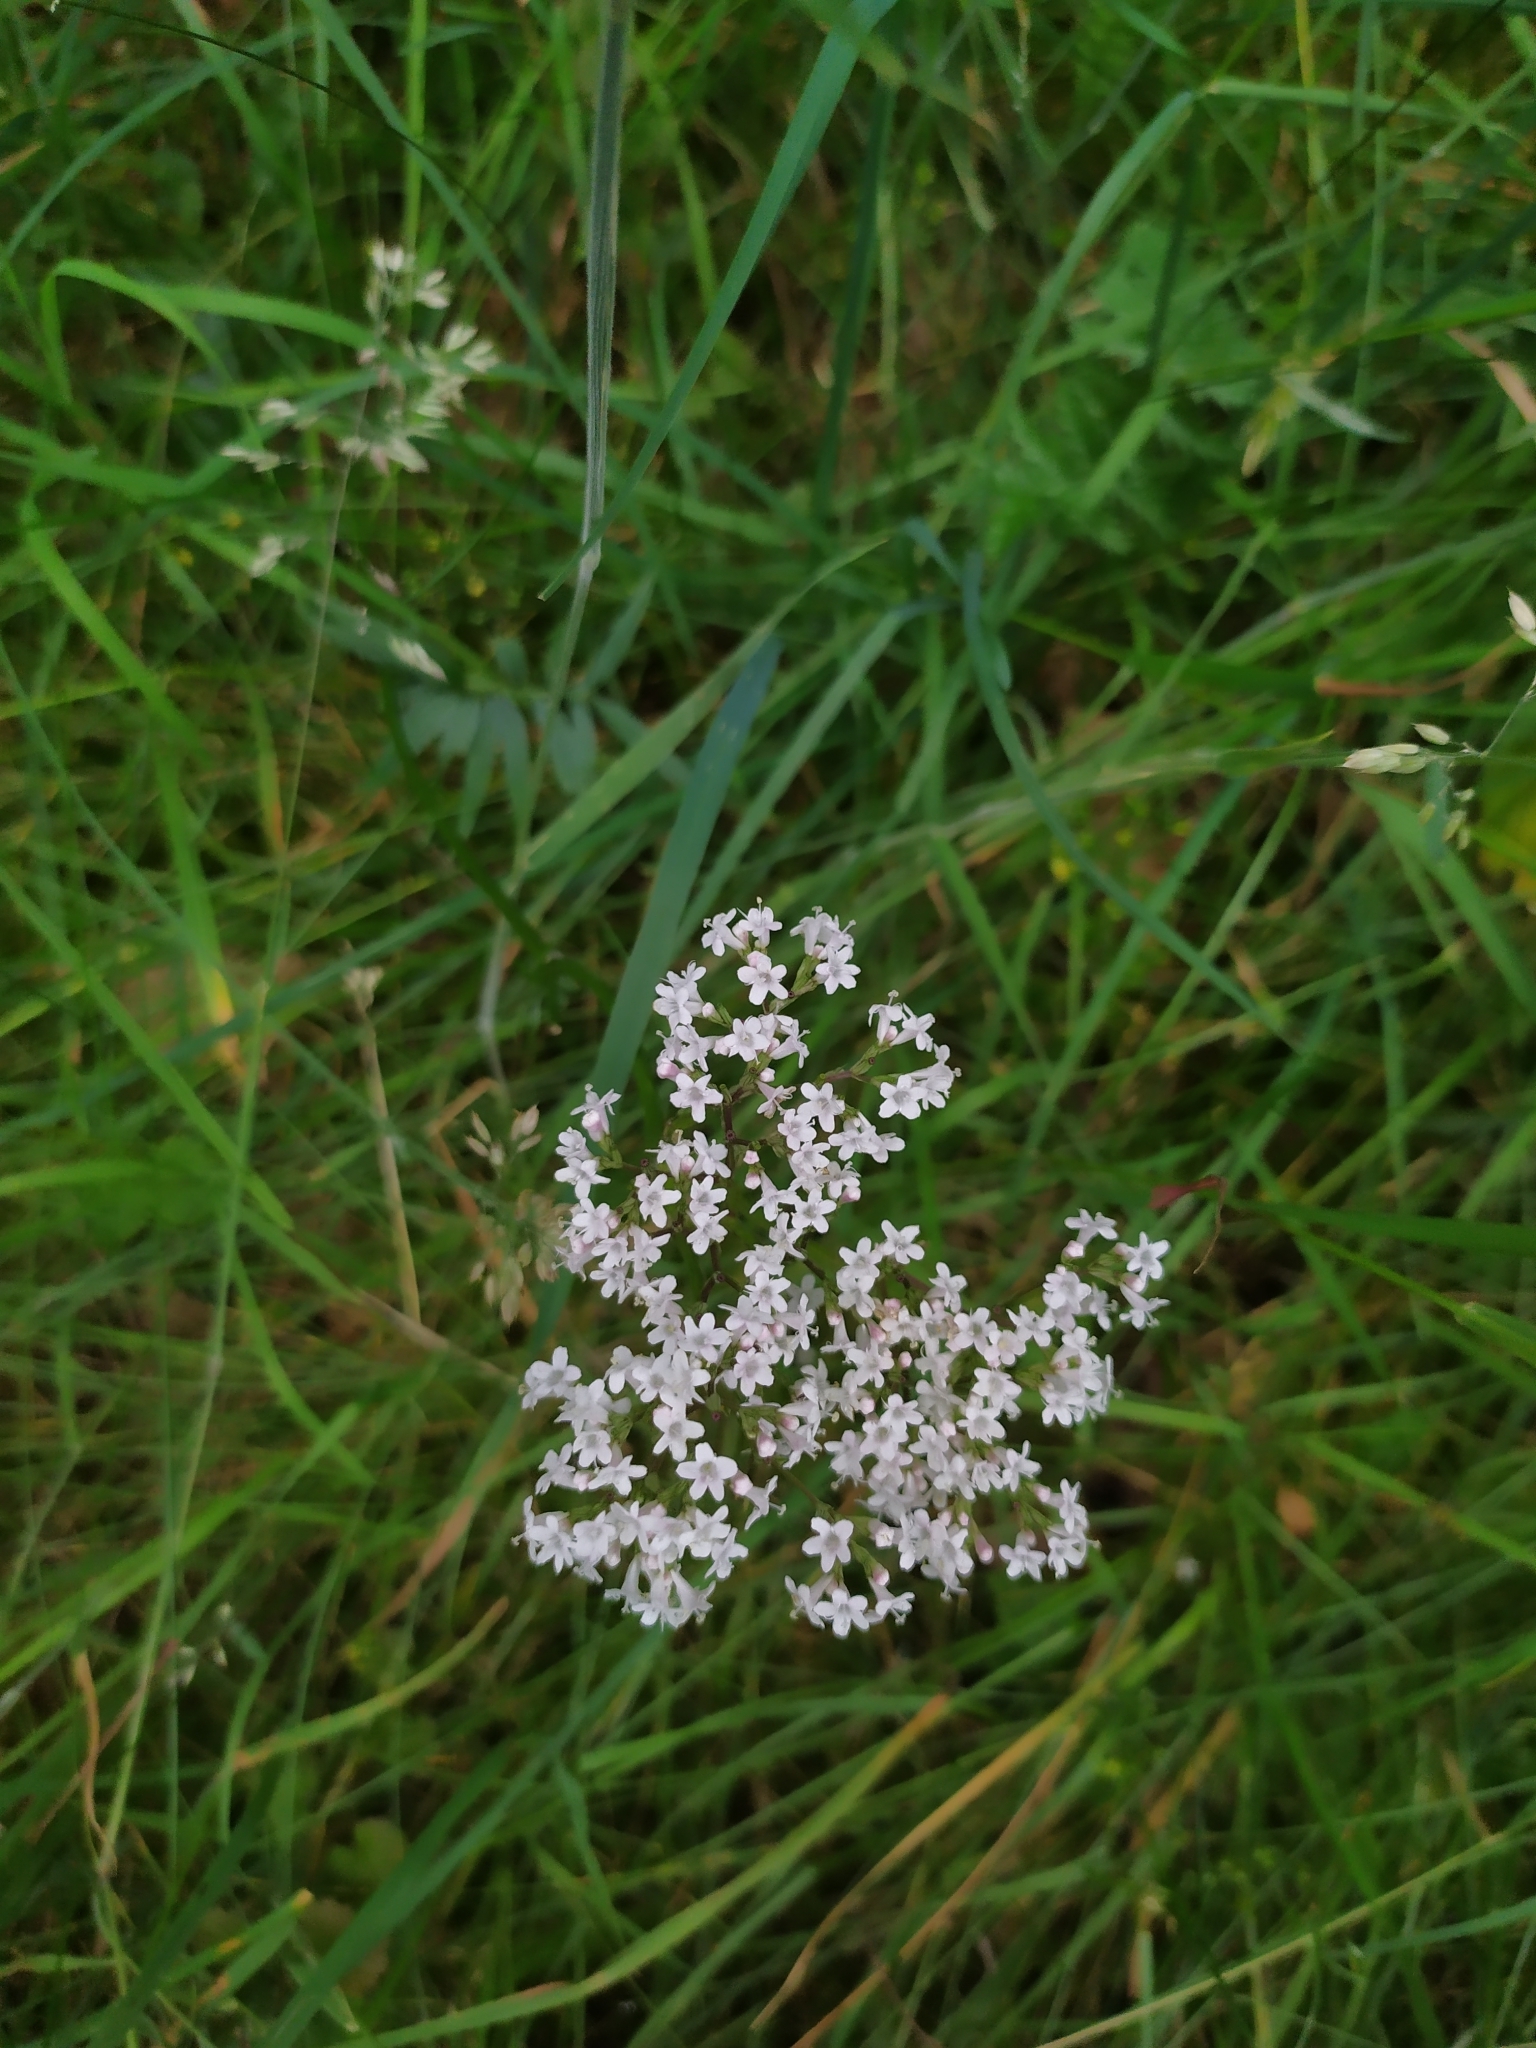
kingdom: Plantae
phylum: Tracheophyta
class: Magnoliopsida
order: Dipsacales
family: Caprifoliaceae
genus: Valeriana
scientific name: Valeriana officinalis
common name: Common valerian
